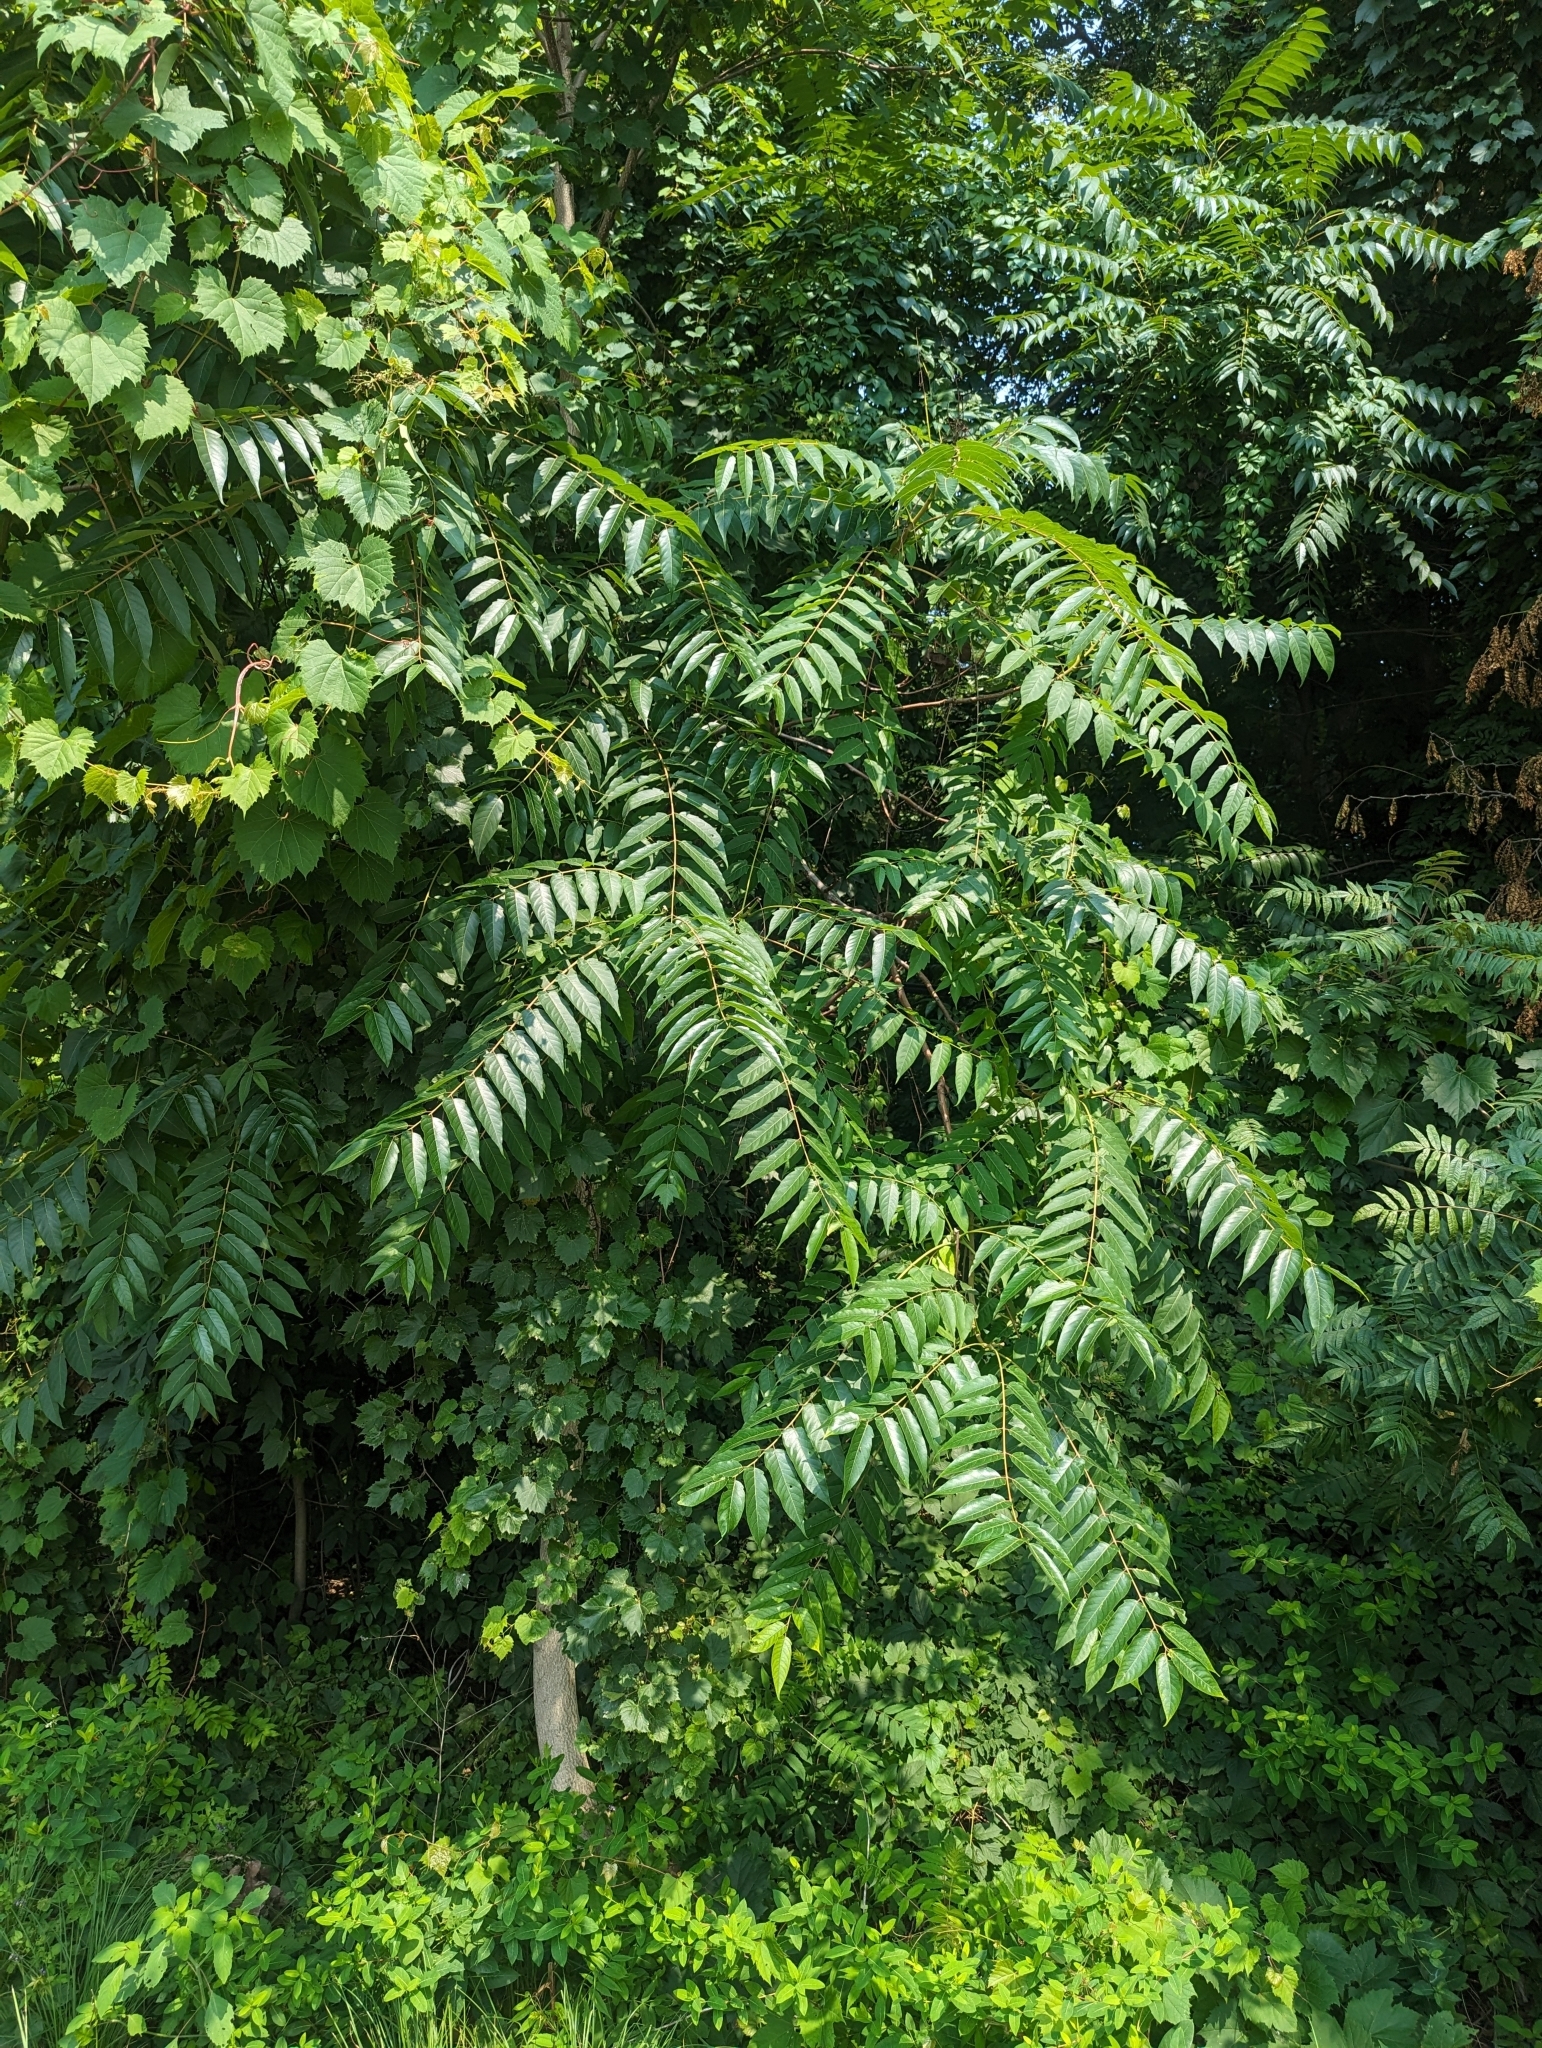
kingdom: Plantae
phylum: Tracheophyta
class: Magnoliopsida
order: Sapindales
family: Simaroubaceae
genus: Ailanthus
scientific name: Ailanthus altissima
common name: Tree-of-heaven
